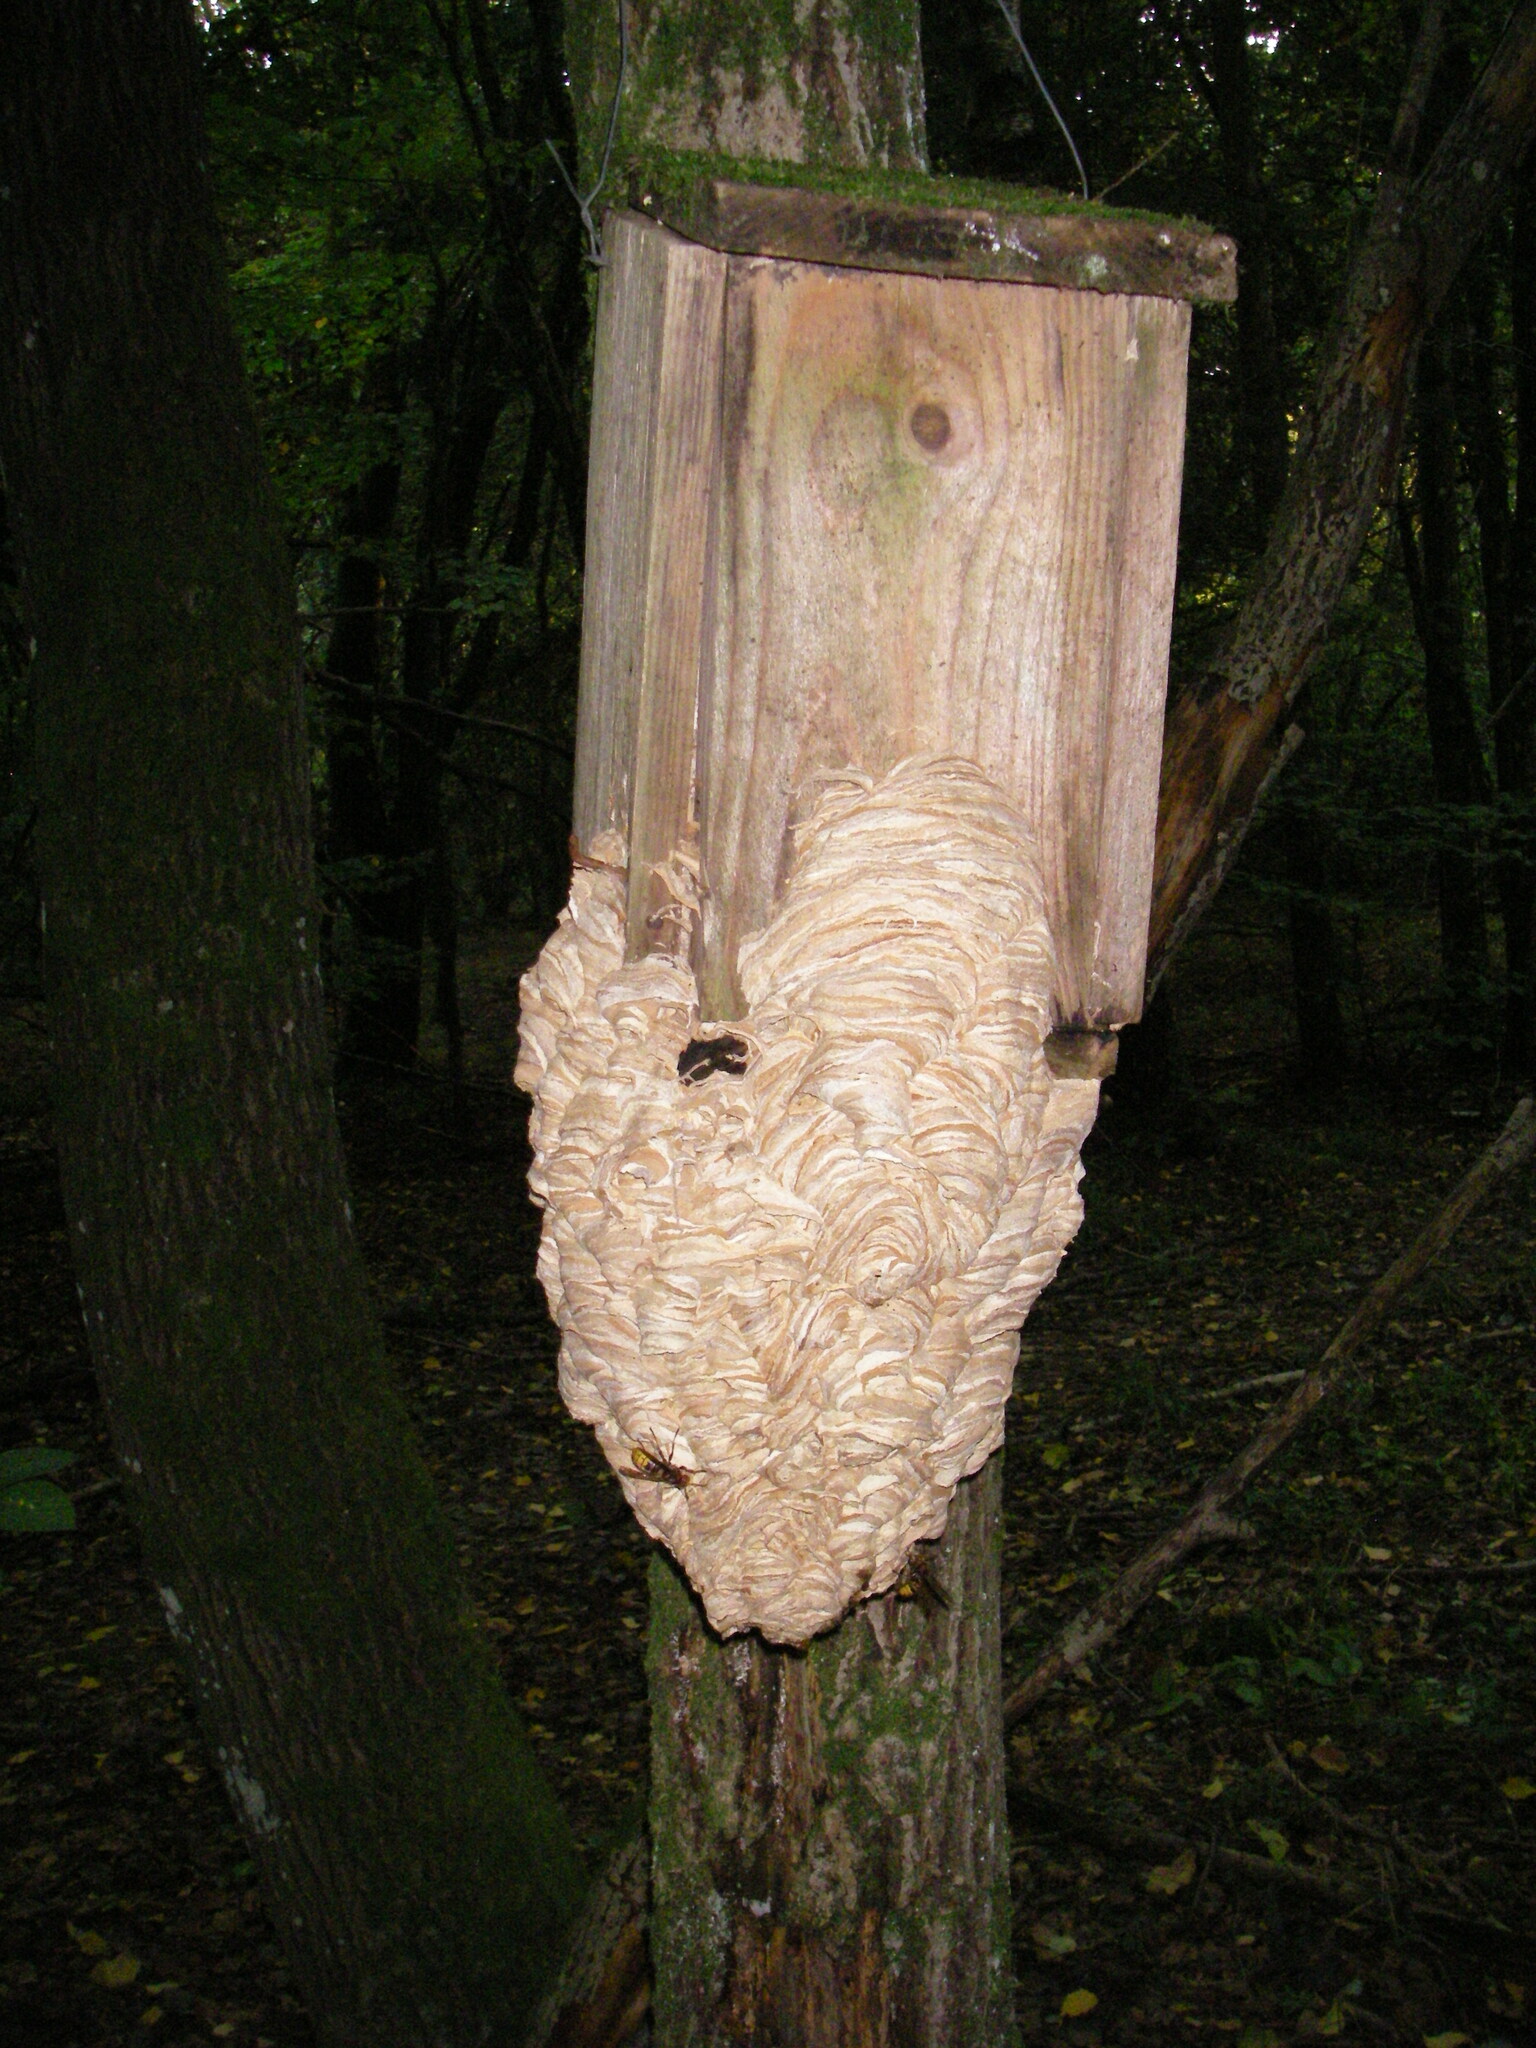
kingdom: Animalia
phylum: Arthropoda
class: Insecta
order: Hymenoptera
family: Vespidae
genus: Vespa
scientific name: Vespa crabro
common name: Hornet
